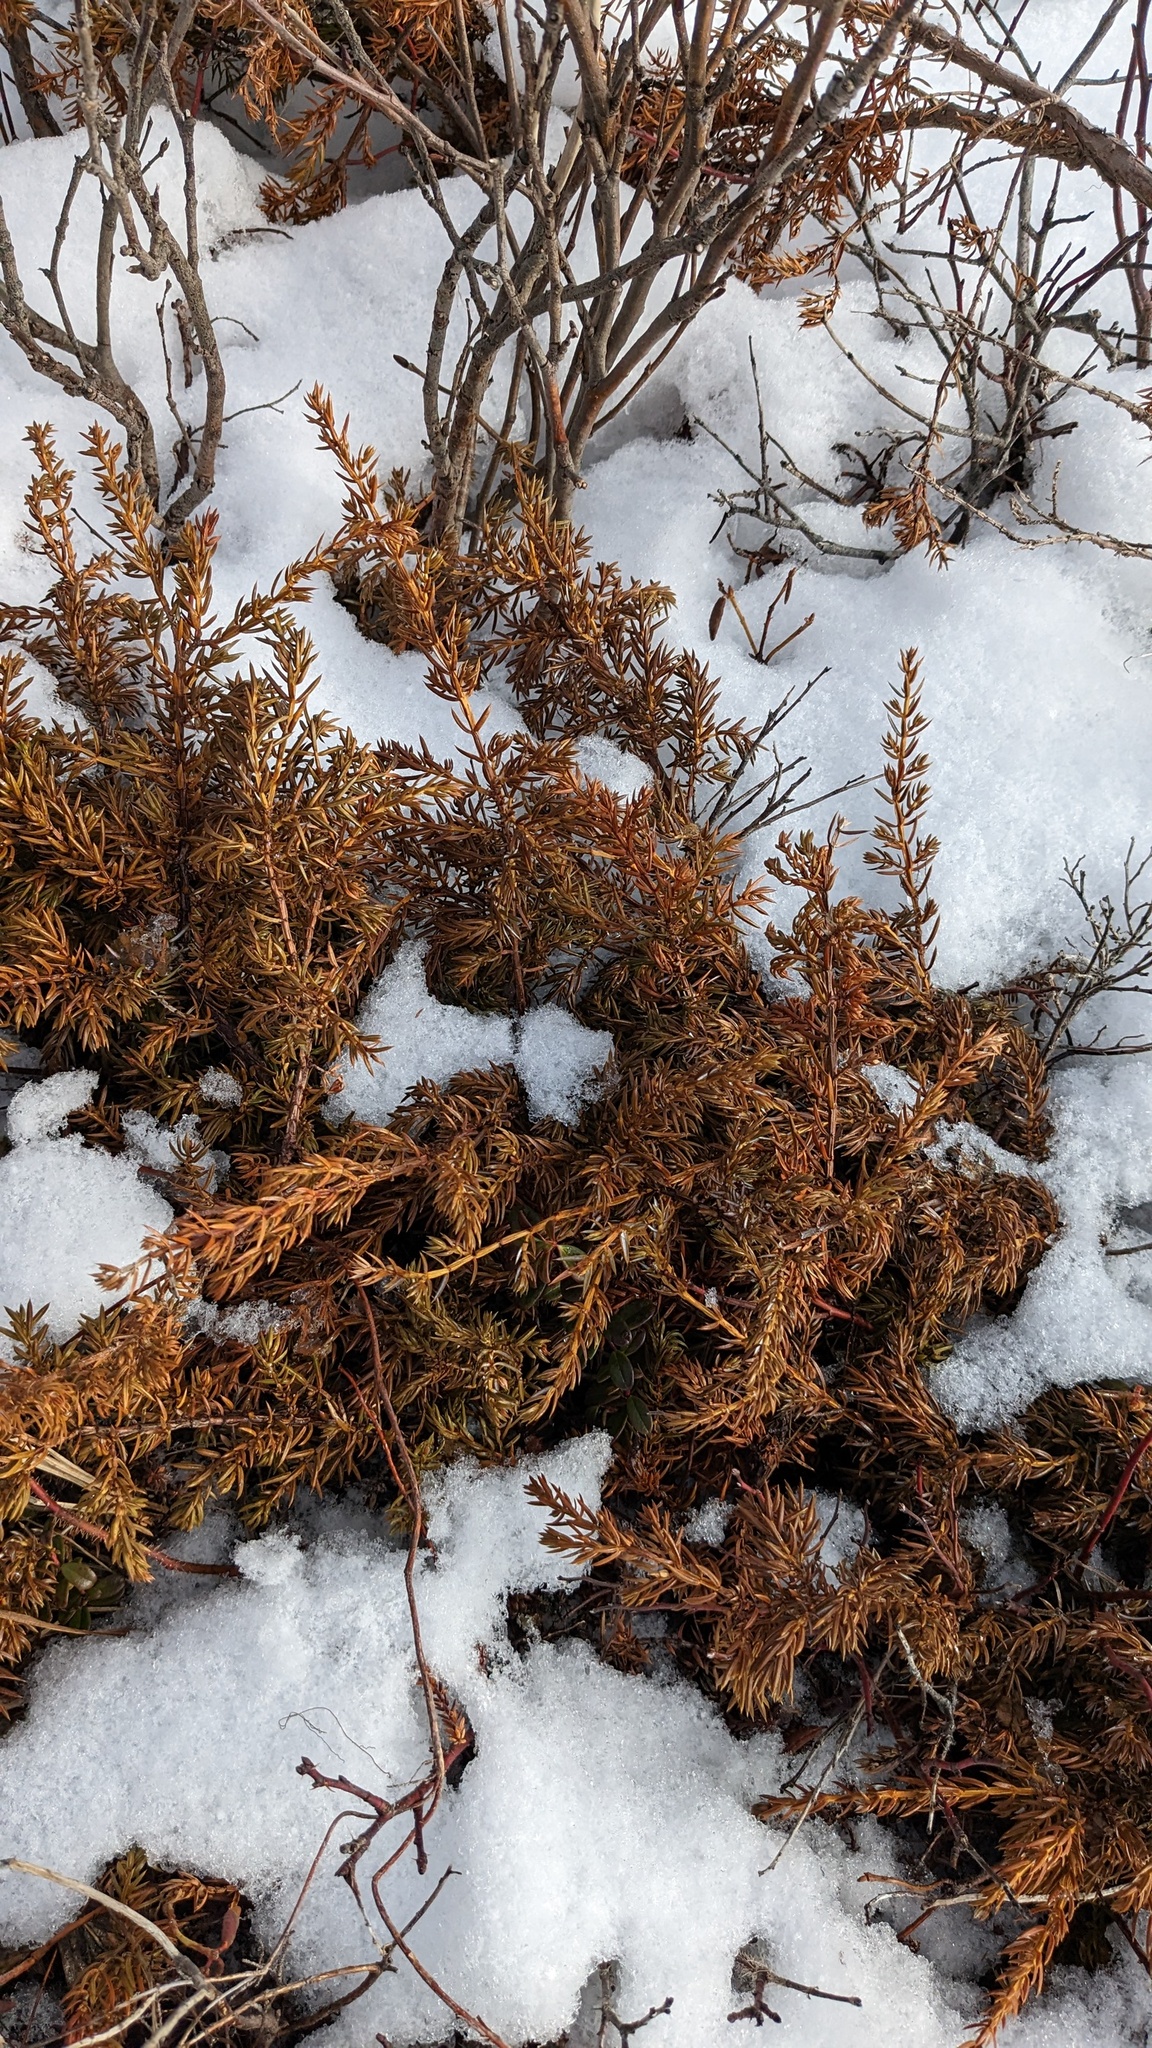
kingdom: Plantae
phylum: Tracheophyta
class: Pinopsida
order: Pinales
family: Cupressaceae
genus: Juniperus
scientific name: Juniperus communis
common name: Common juniper
